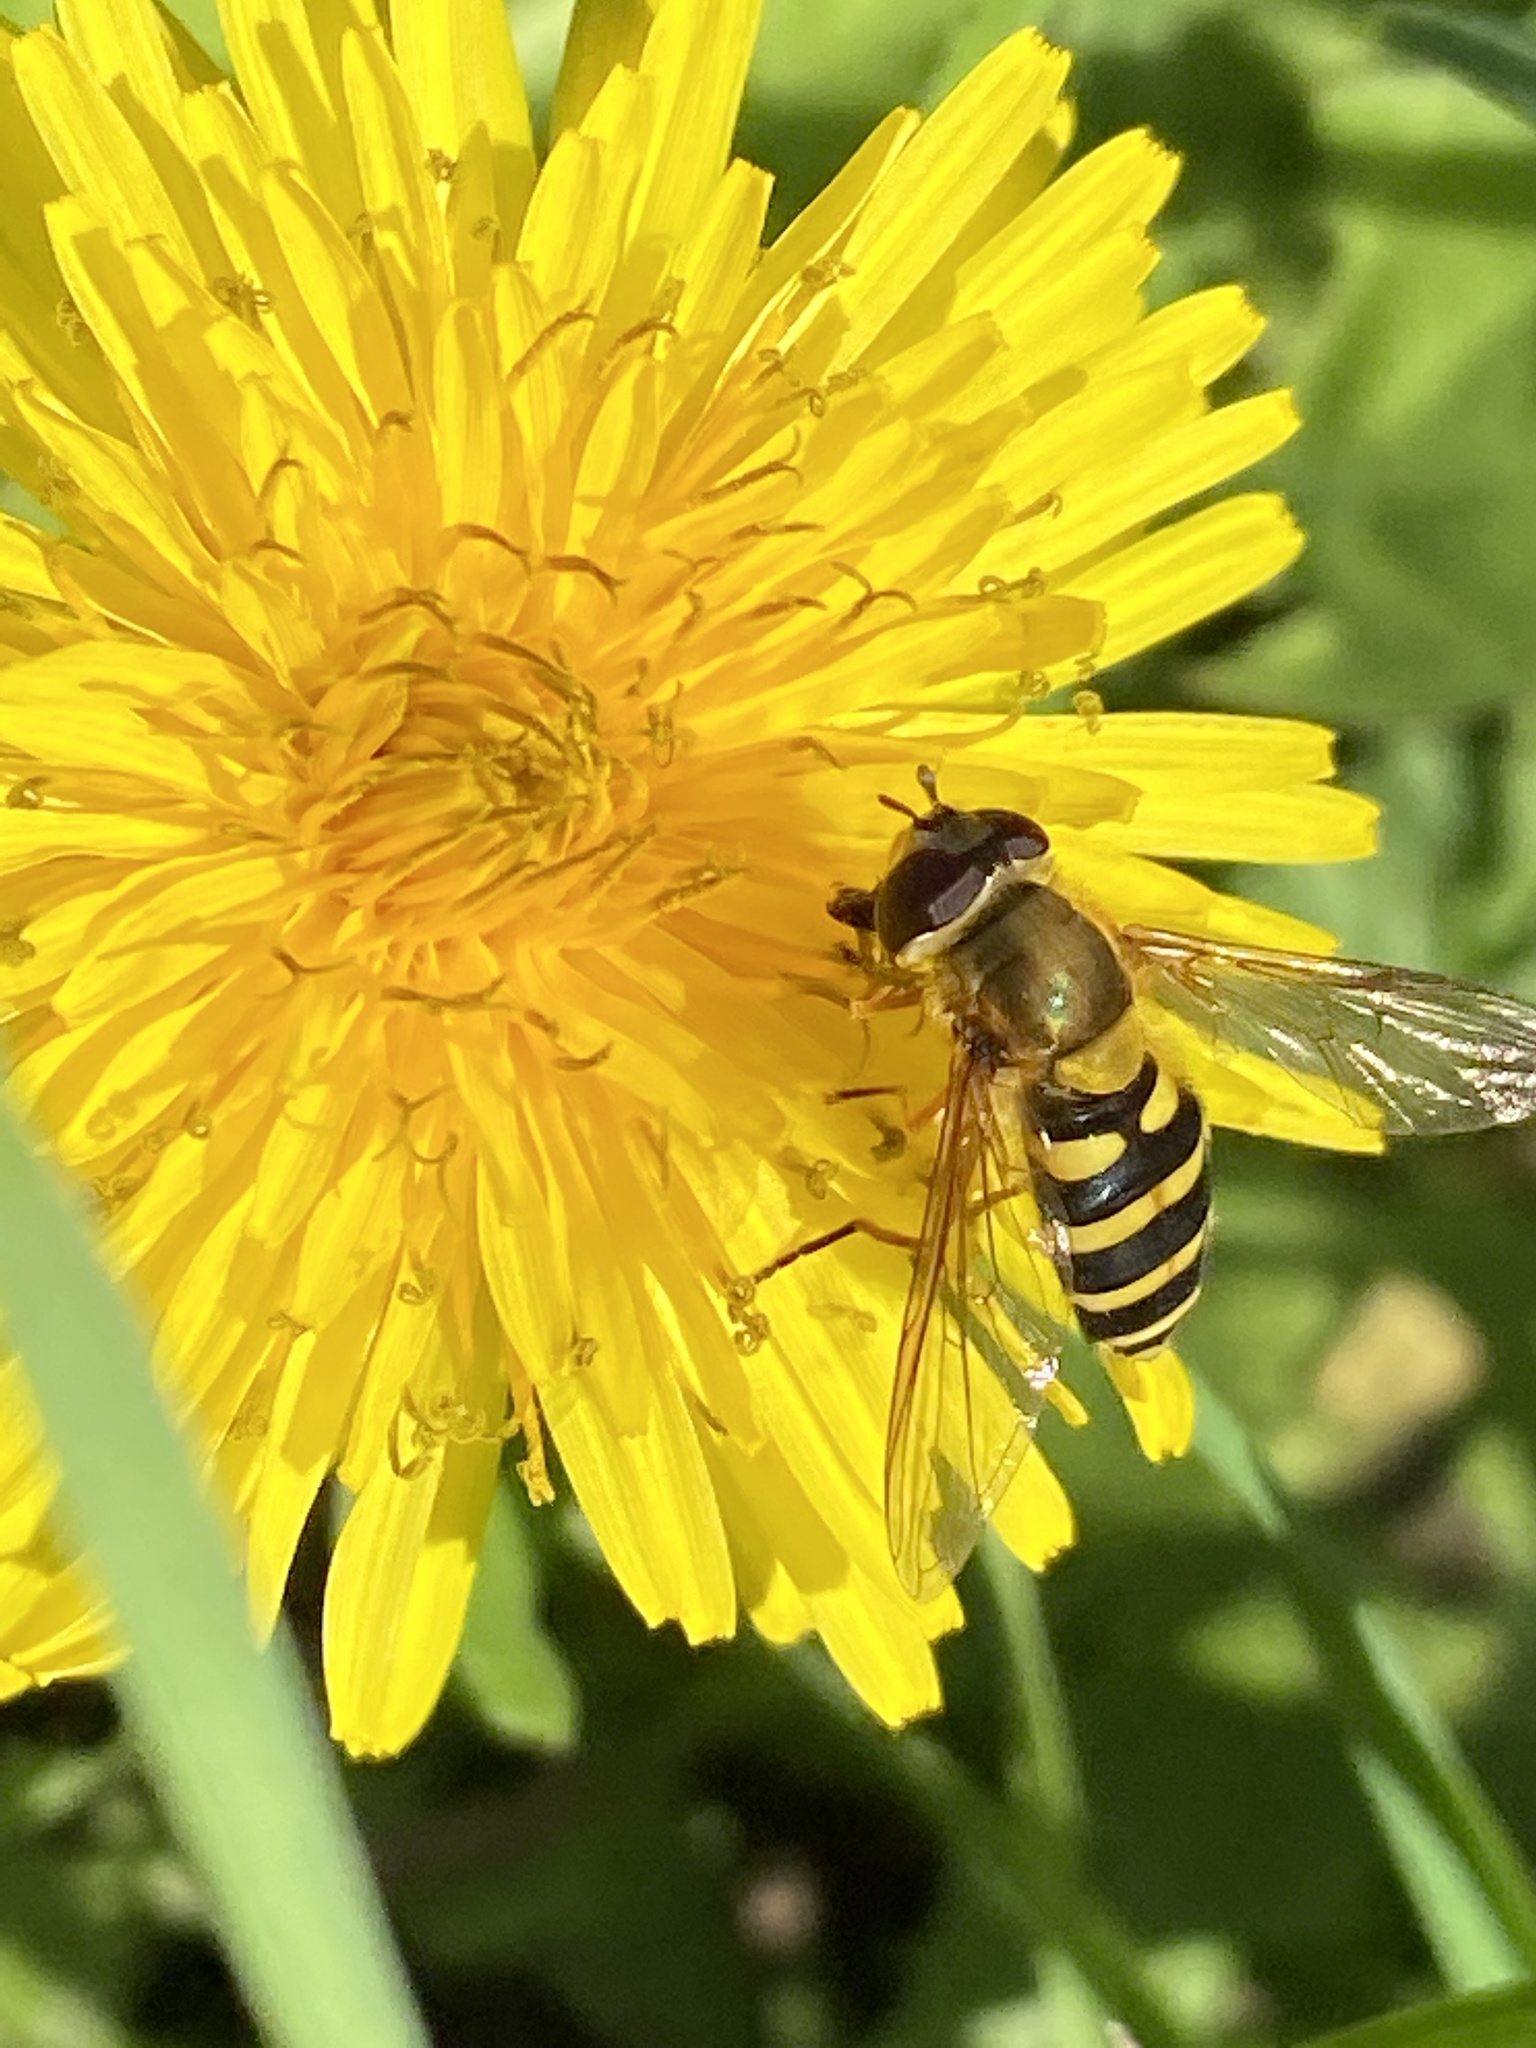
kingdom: Animalia
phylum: Arthropoda
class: Insecta
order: Diptera
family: Syrphidae
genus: Syrphus
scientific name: Syrphus ribesii
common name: Common flower fly
